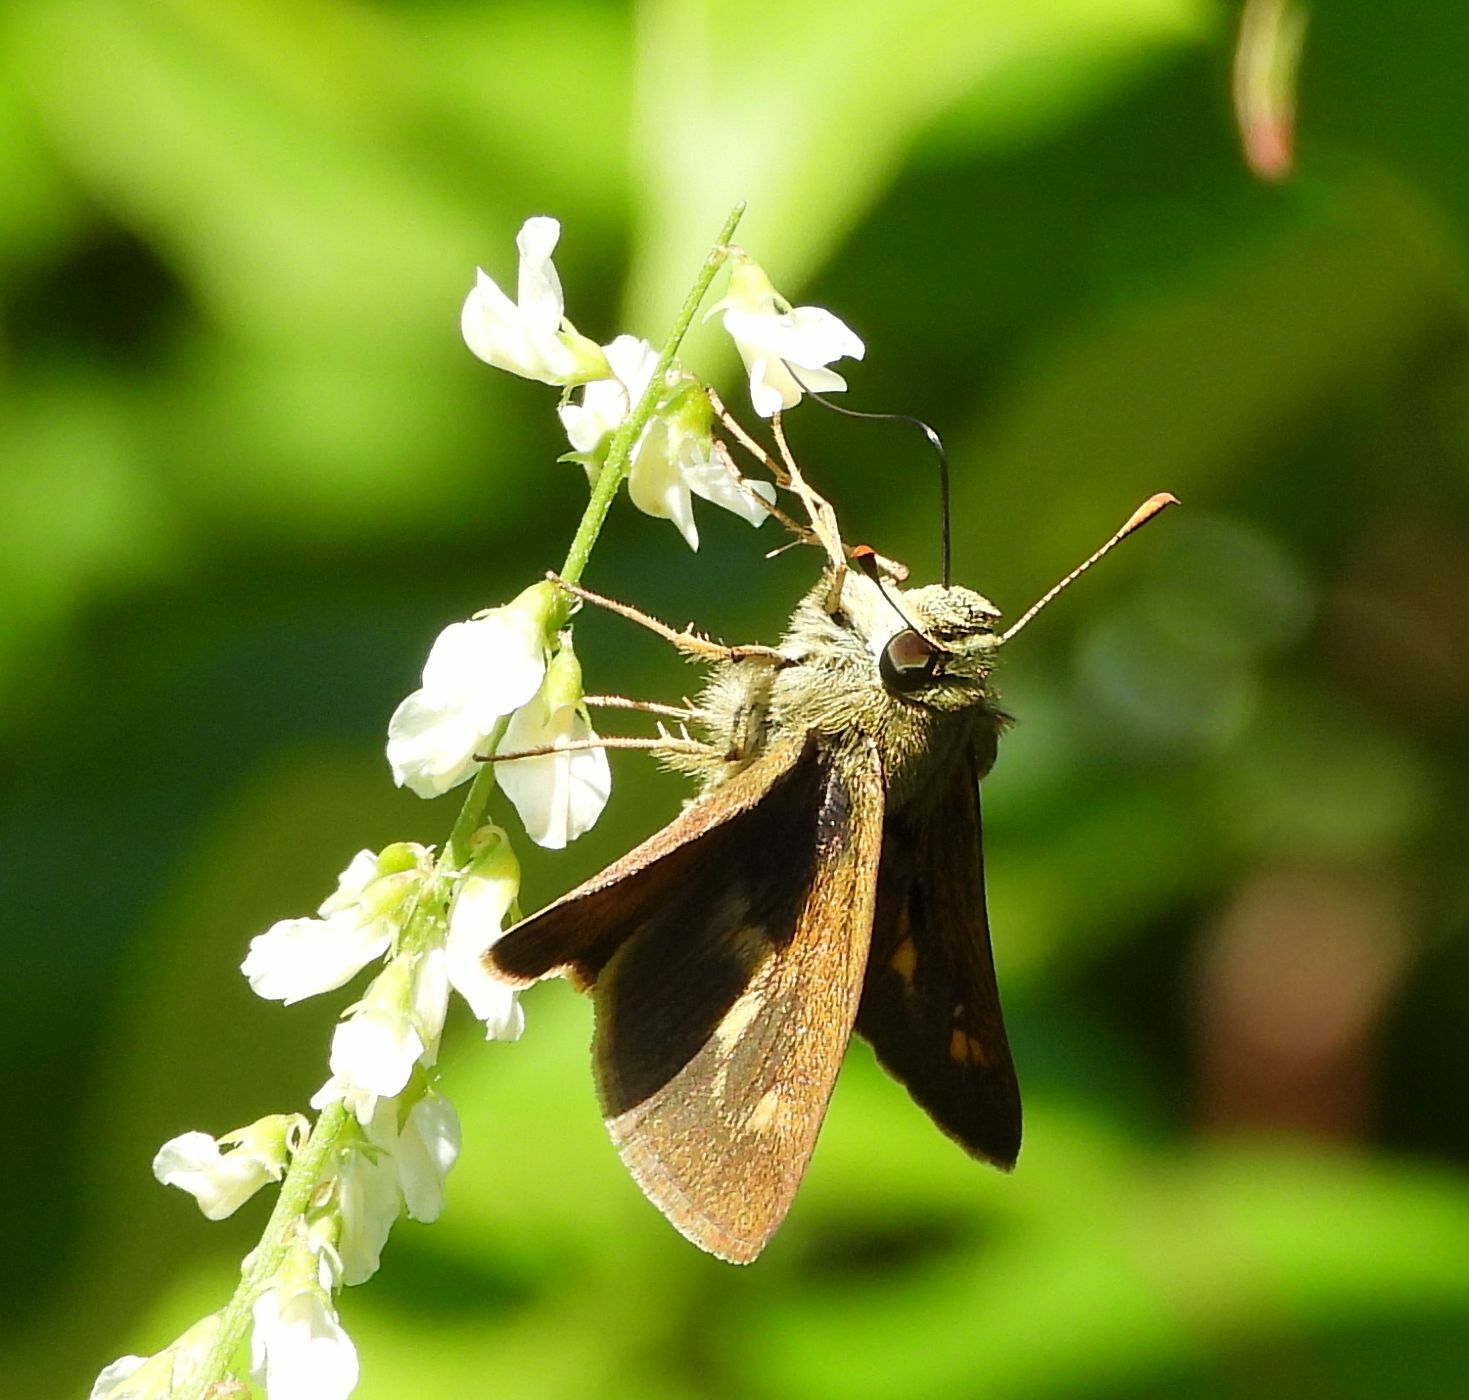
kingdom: Animalia
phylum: Arthropoda
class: Insecta
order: Lepidoptera
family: Hesperiidae
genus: Polites
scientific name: Polites egeremet
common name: Northern broken-dash
